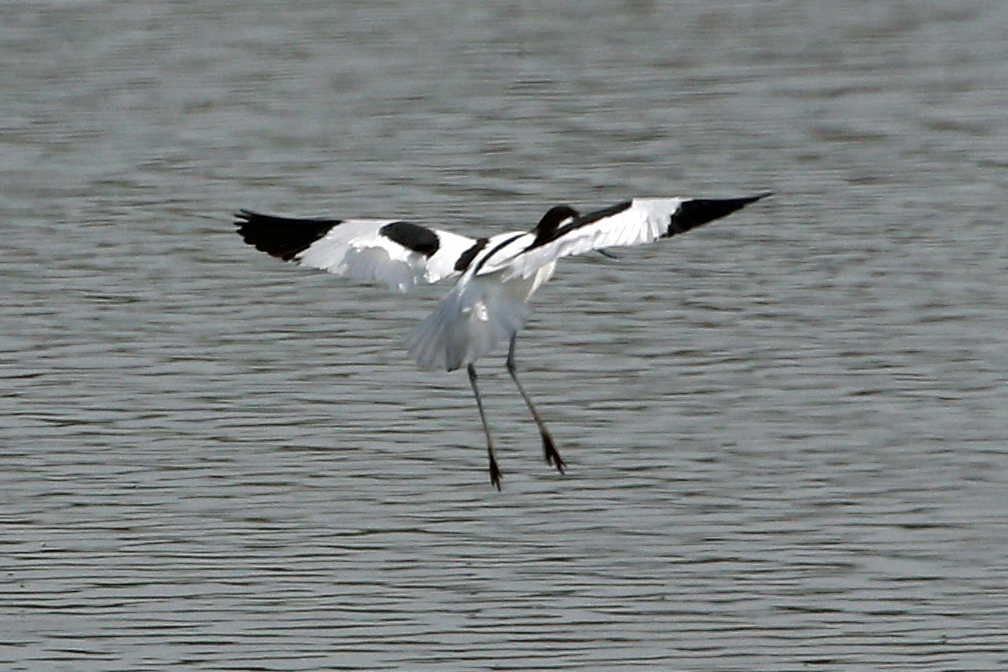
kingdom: Animalia
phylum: Chordata
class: Aves
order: Charadriiformes
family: Recurvirostridae
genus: Recurvirostra
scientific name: Recurvirostra avosetta
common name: Pied avocet
